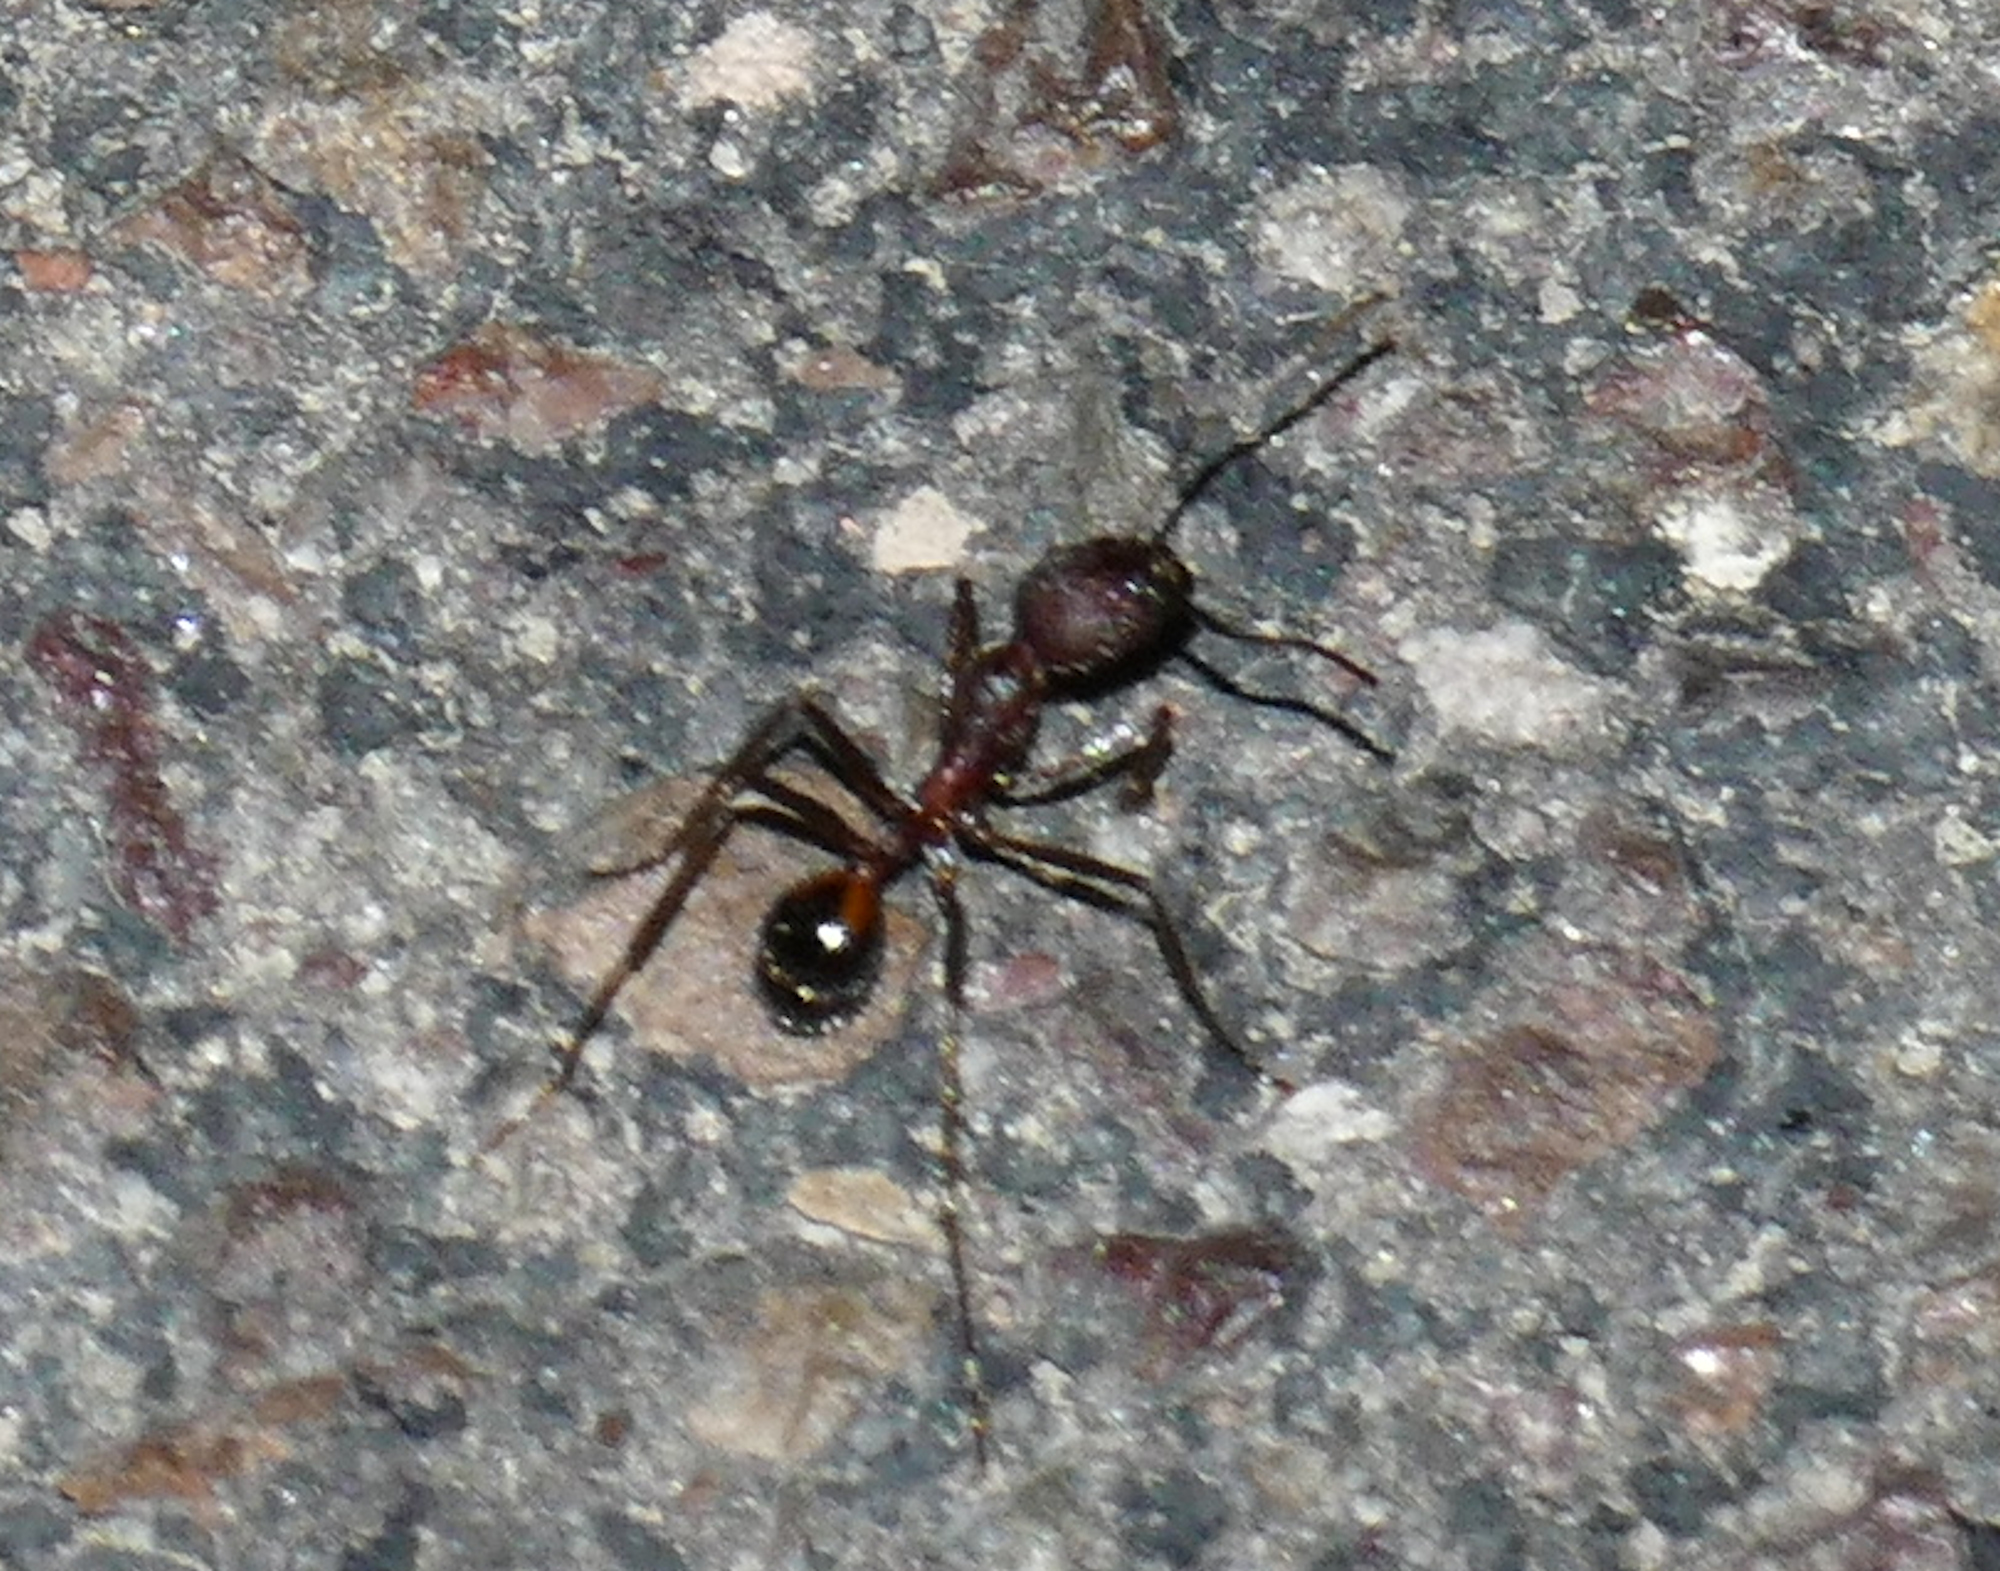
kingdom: Animalia
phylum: Arthropoda
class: Insecta
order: Hymenoptera
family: Formicidae
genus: Novomessor
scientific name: Novomessor albisetosa
